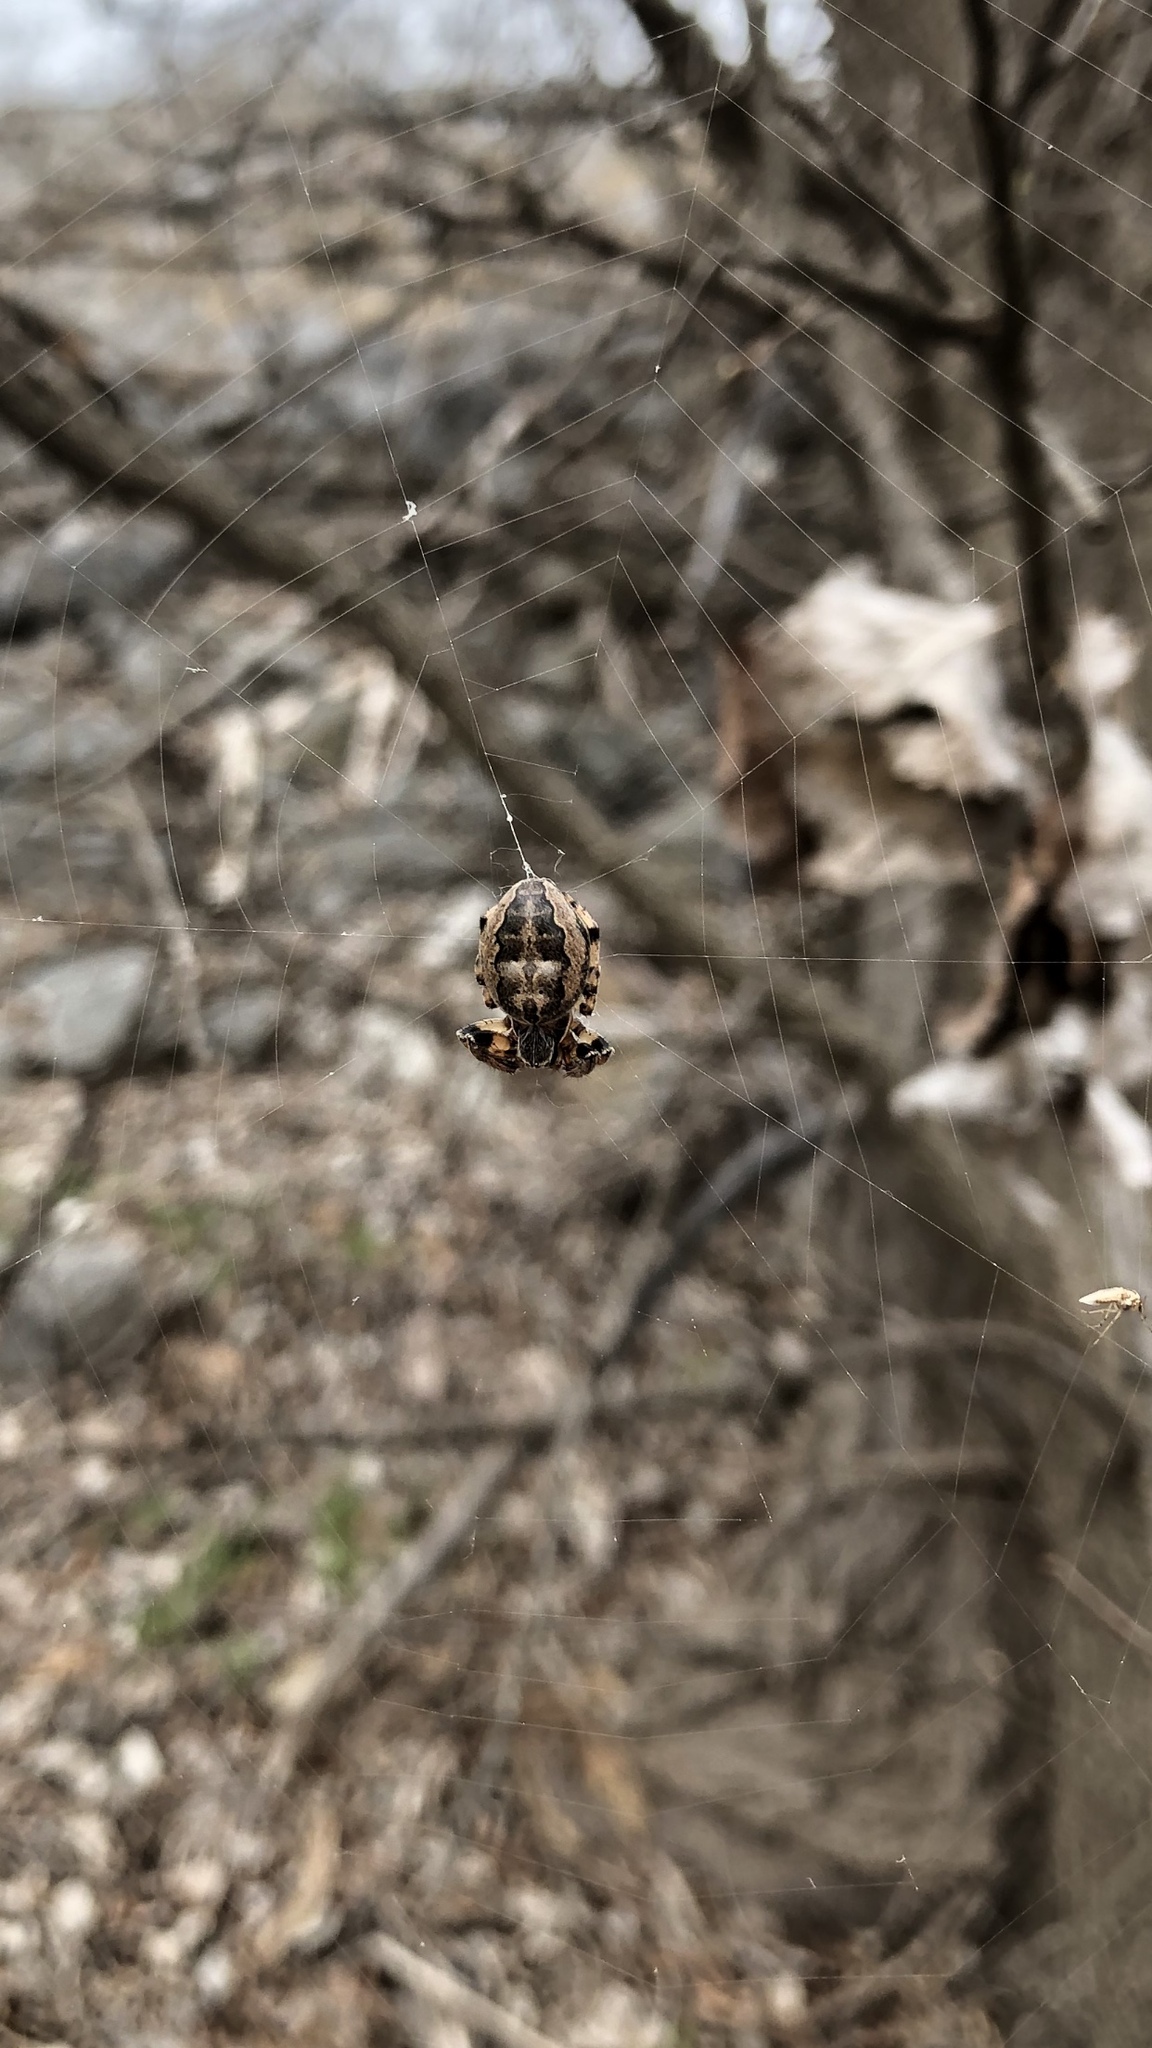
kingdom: Animalia
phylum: Arthropoda
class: Arachnida
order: Araneae
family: Araneidae
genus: Larinioides
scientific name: Larinioides cornutus
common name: Furrow orbweaver
